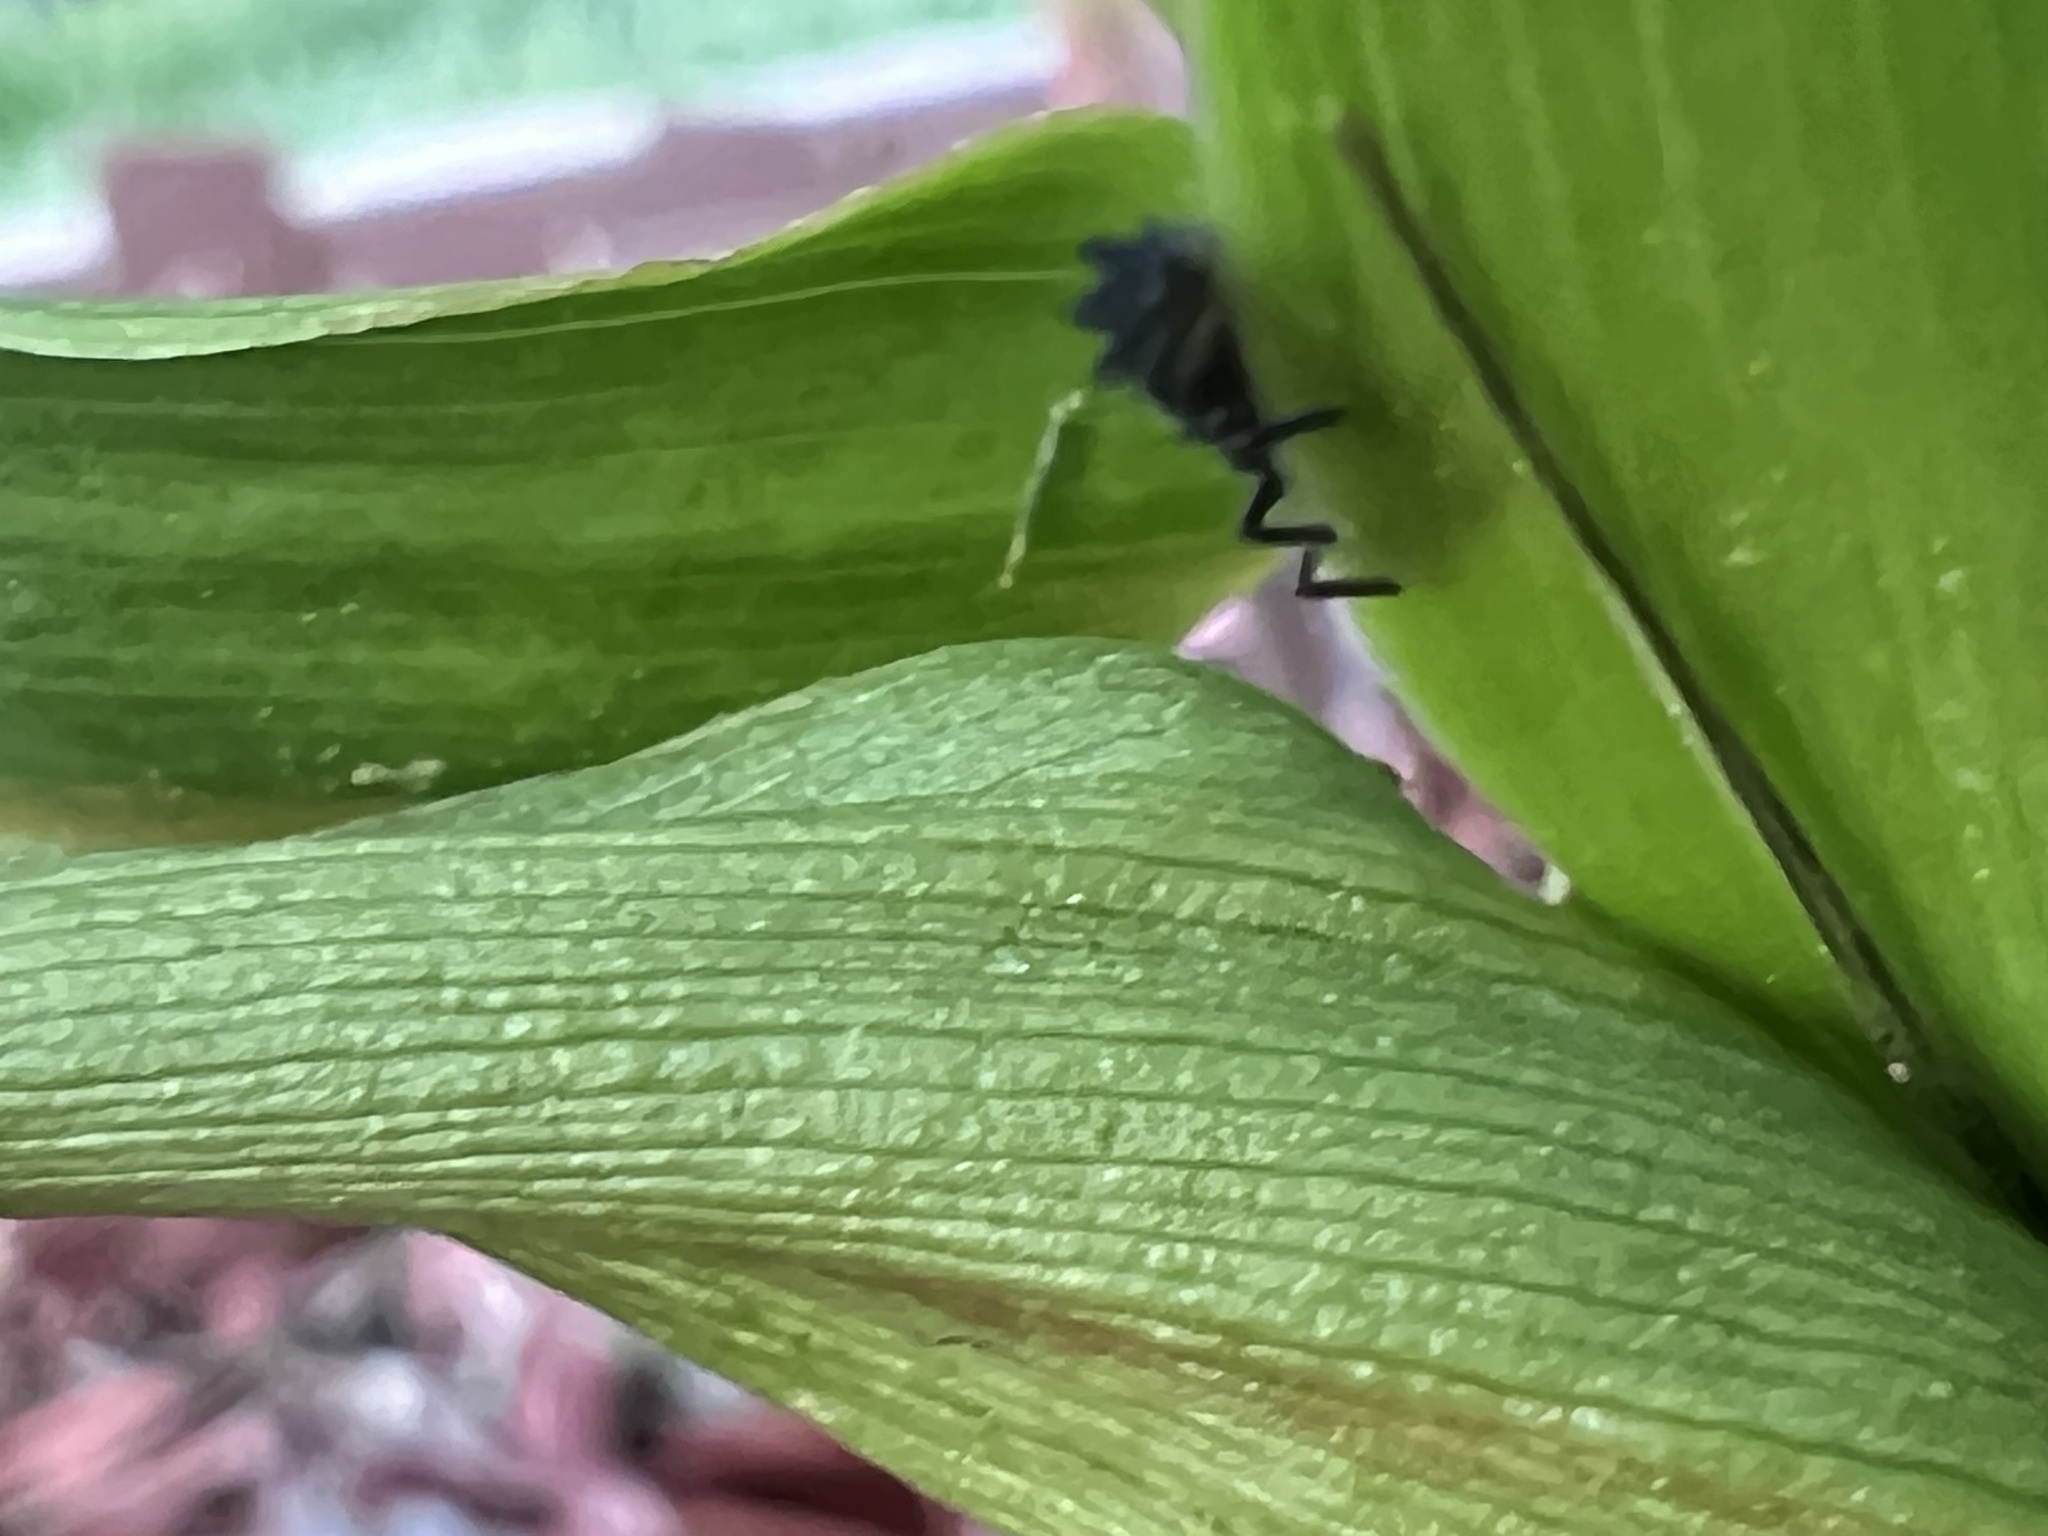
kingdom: Animalia
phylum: Arthropoda
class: Insecta
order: Coleoptera
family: Coccinellidae
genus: Harmonia
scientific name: Harmonia axyridis
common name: Harlequin ladybird
